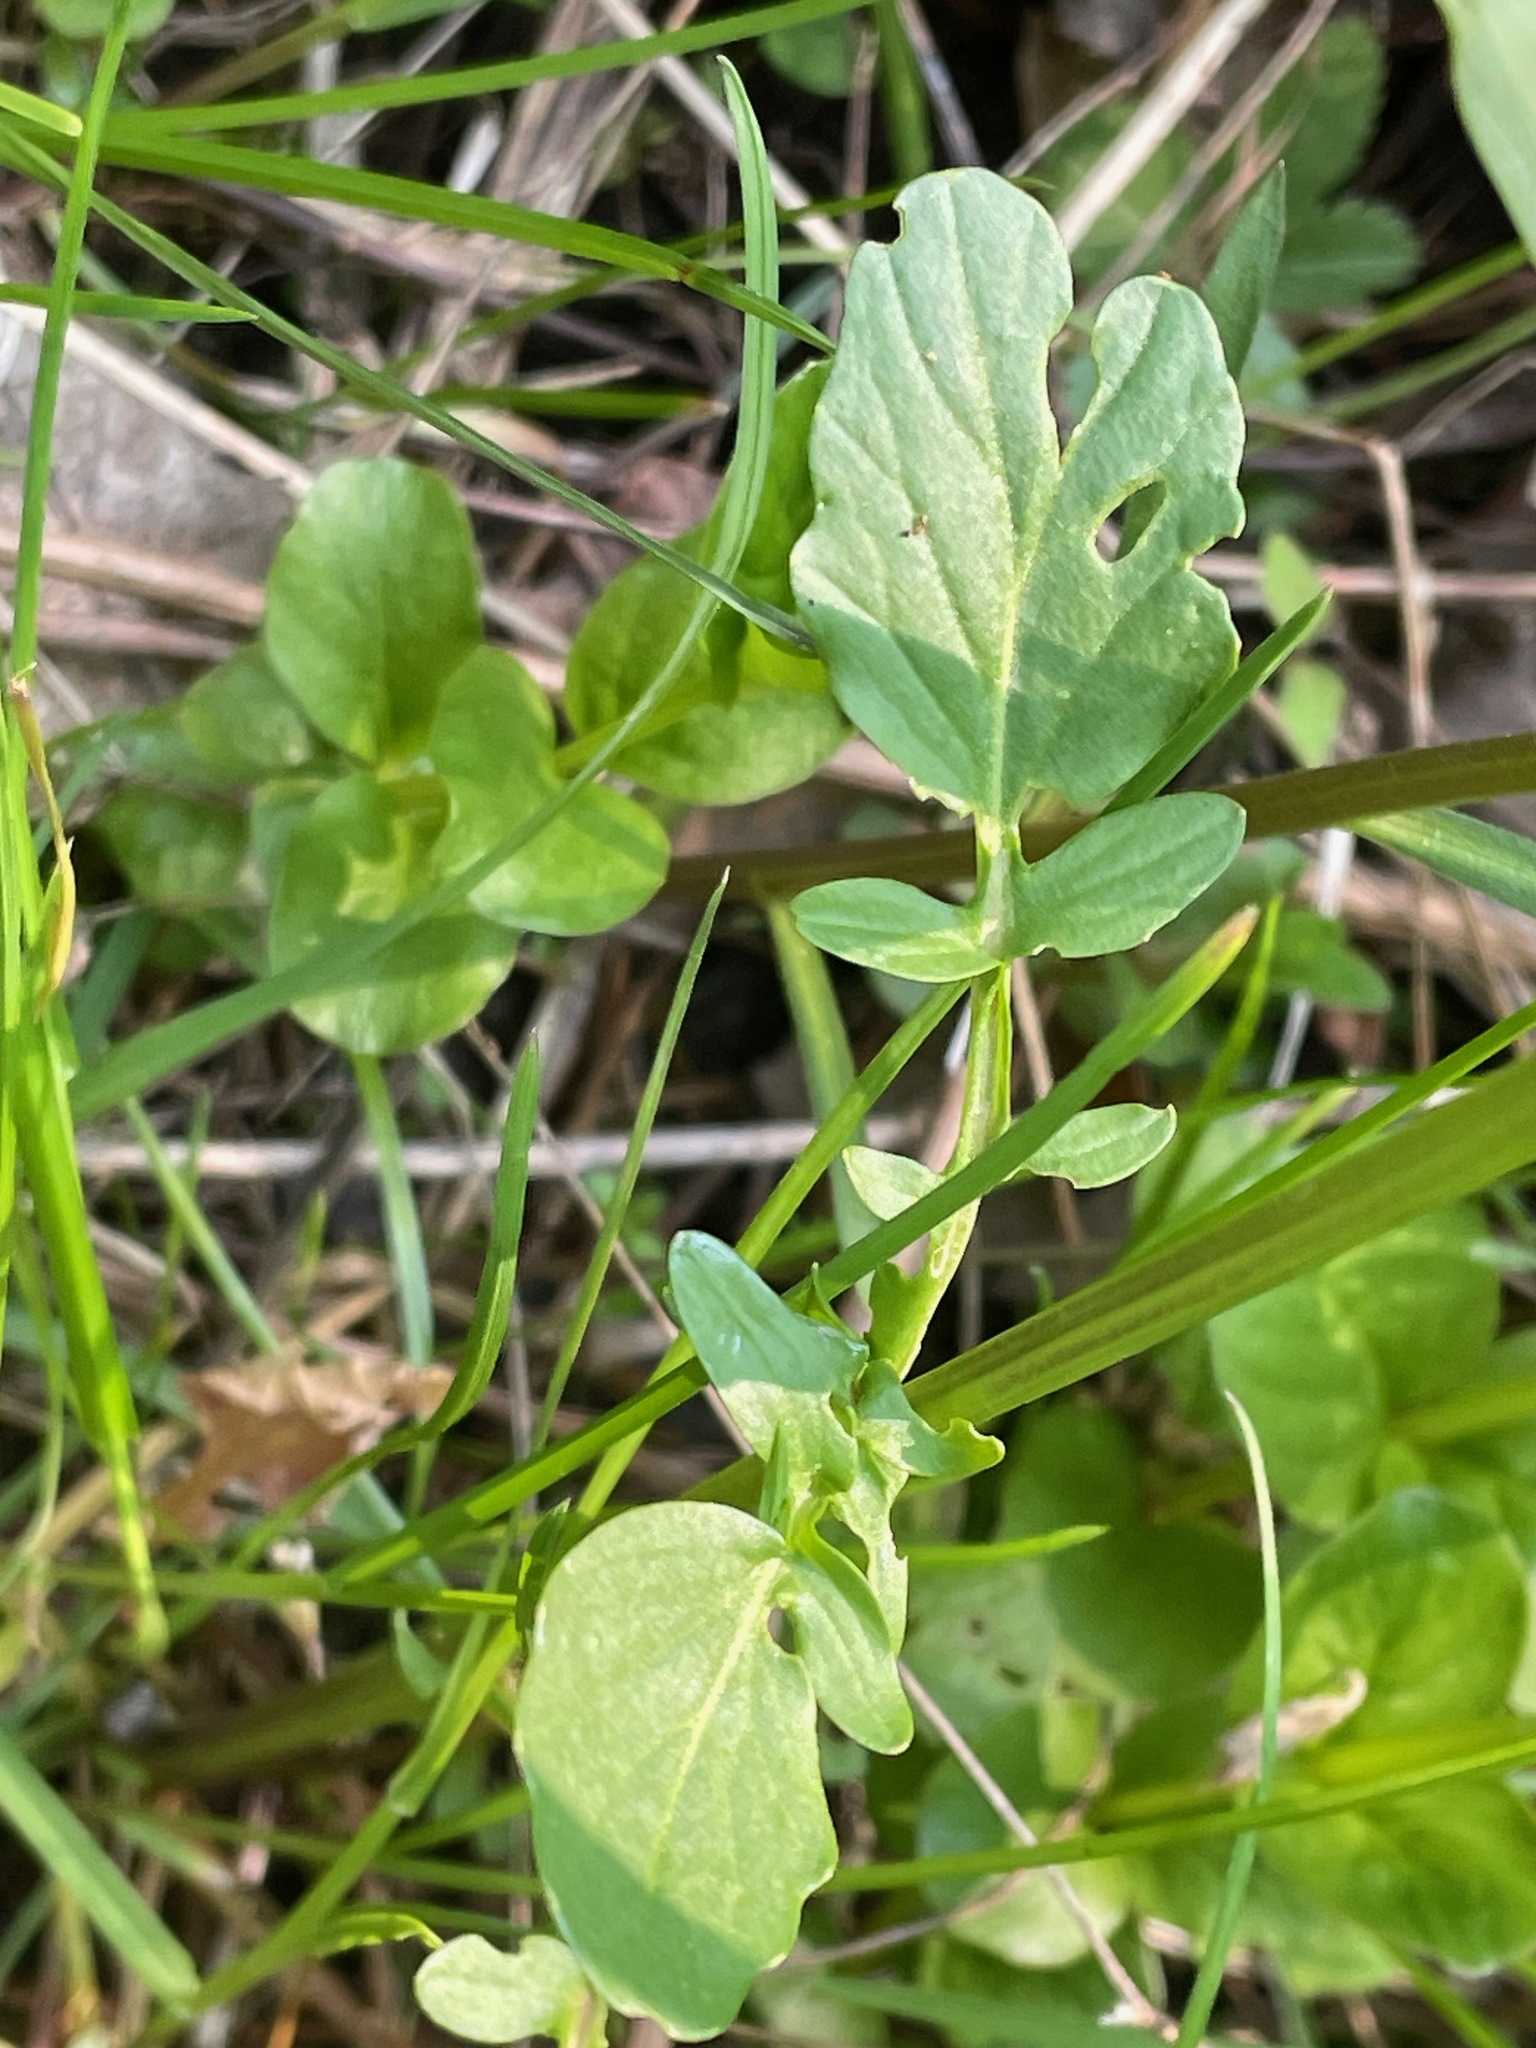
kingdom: Plantae
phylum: Tracheophyta
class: Magnoliopsida
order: Brassicales
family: Brassicaceae
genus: Barbarea
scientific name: Barbarea vulgaris
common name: Cressy-greens
